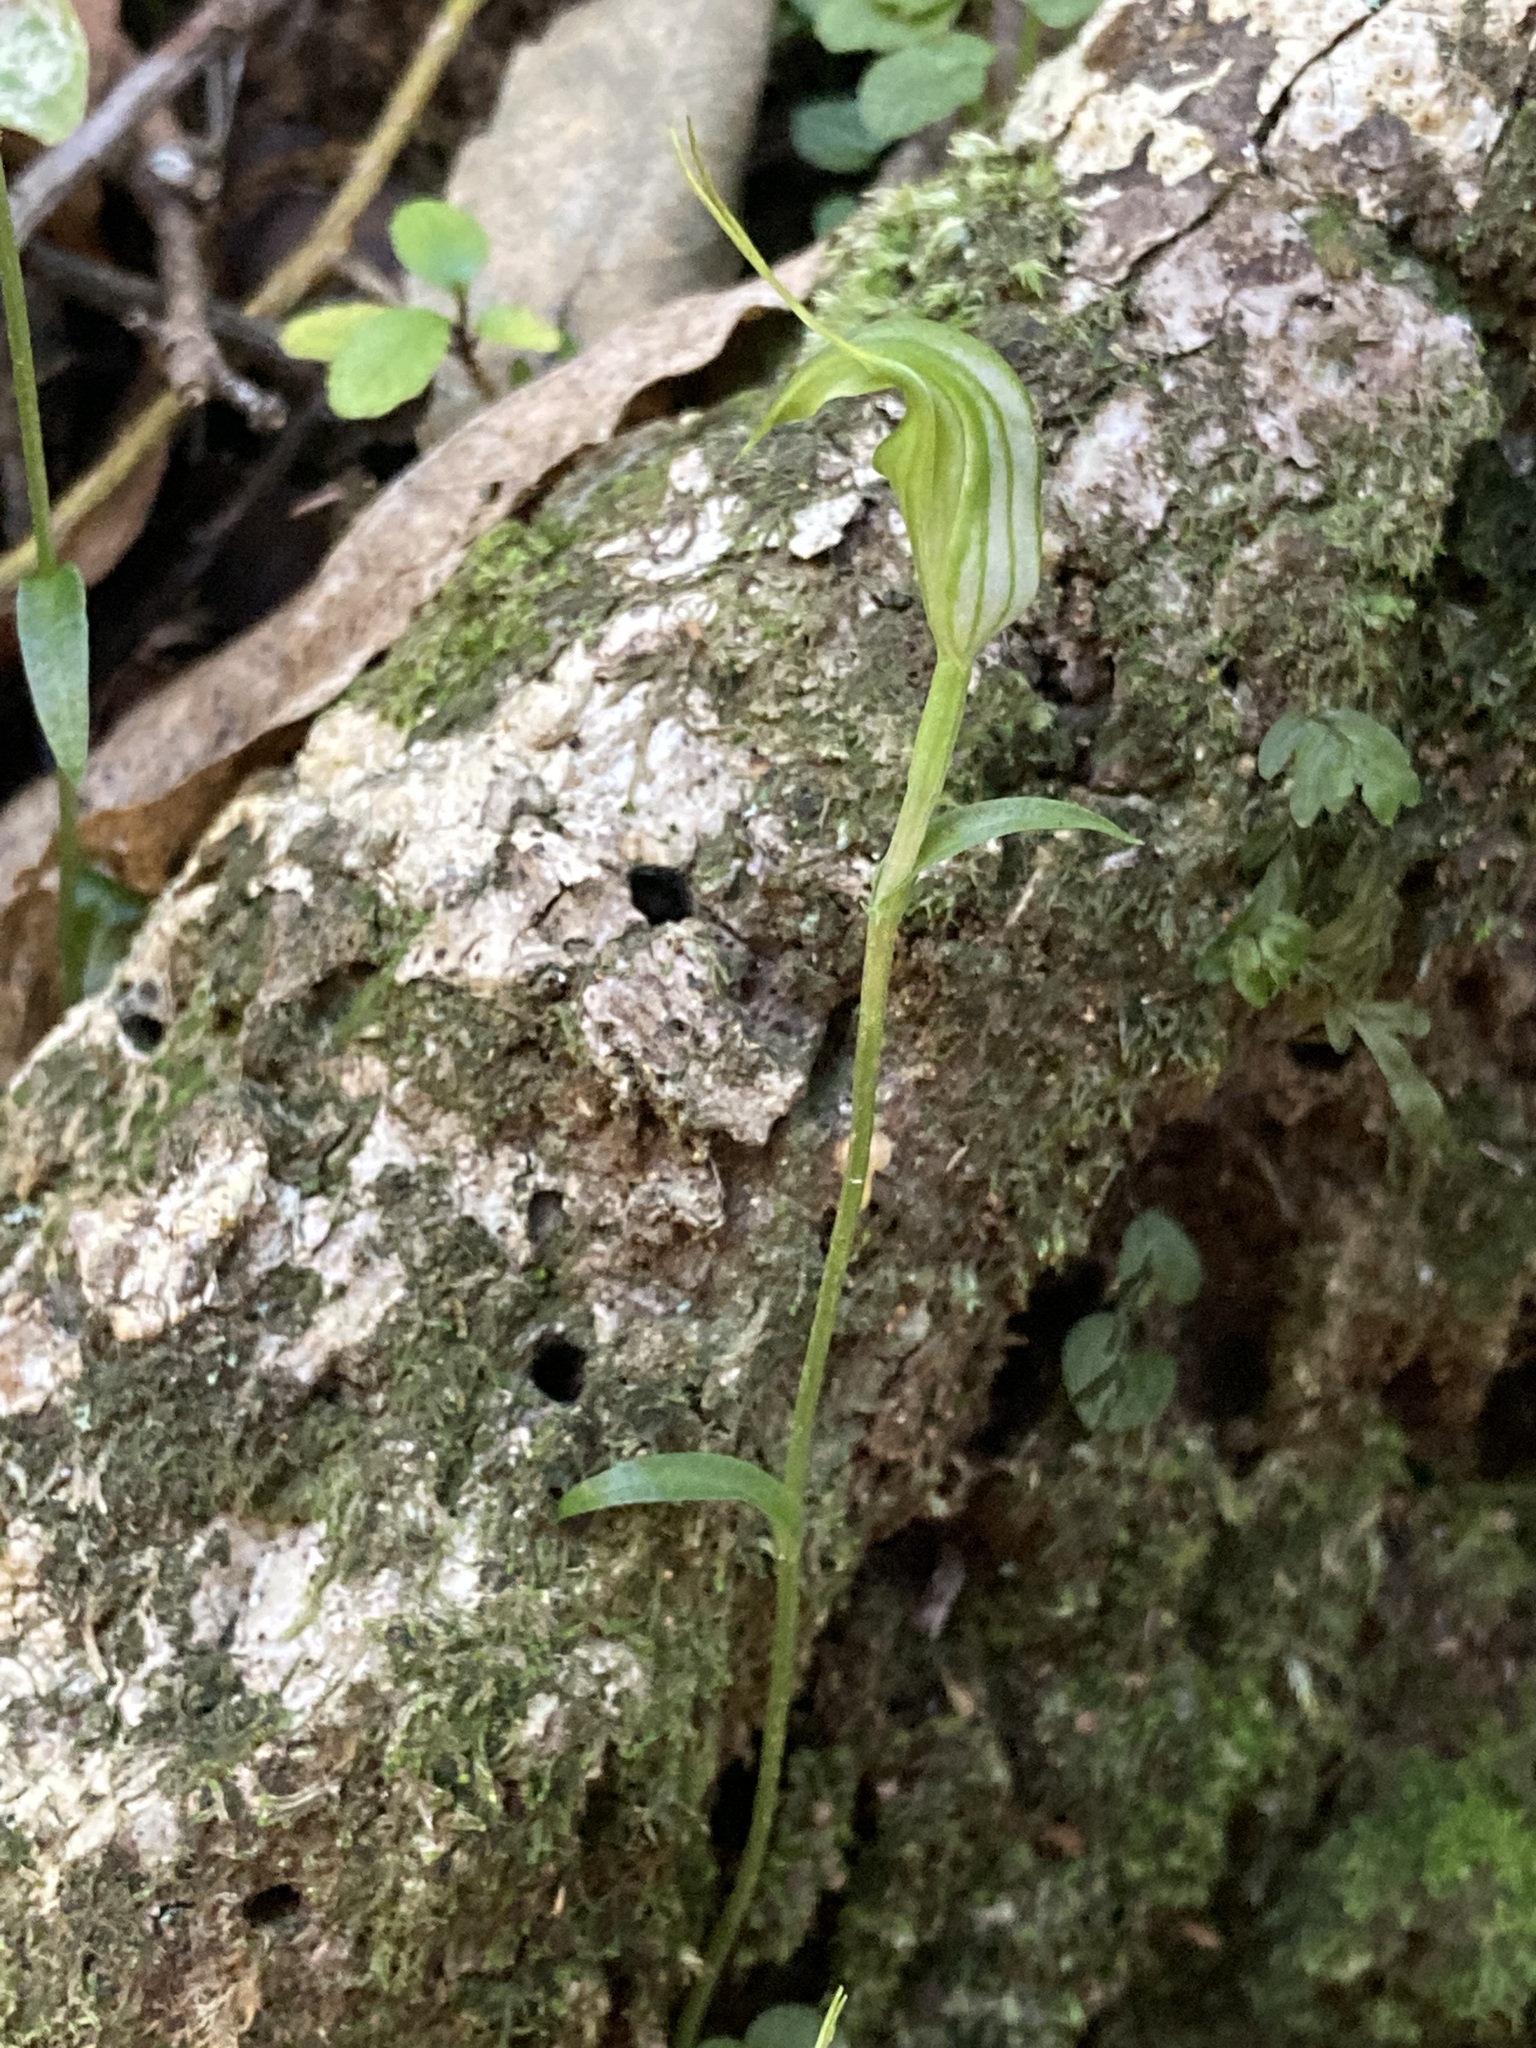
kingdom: Plantae
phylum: Tracheophyta
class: Liliopsida
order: Asparagales
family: Orchidaceae
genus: Pterostylis
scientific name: Pterostylis trullifolia
